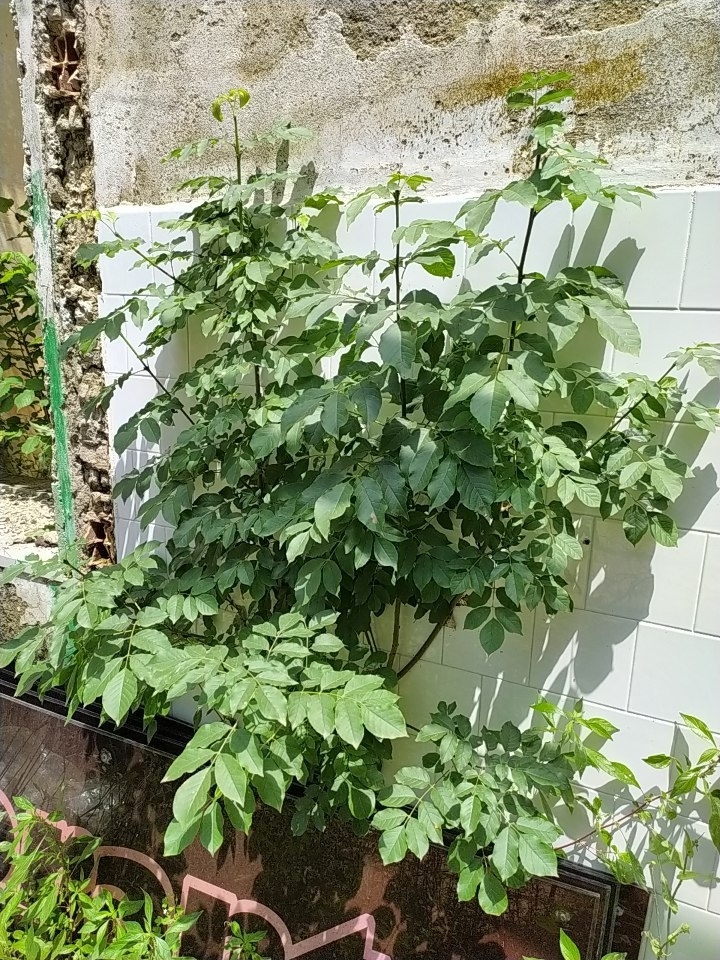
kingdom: Plantae
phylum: Tracheophyta
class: Magnoliopsida
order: Lamiales
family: Oleaceae
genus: Fraxinus
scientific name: Fraxinus ornus
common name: Manna ash
